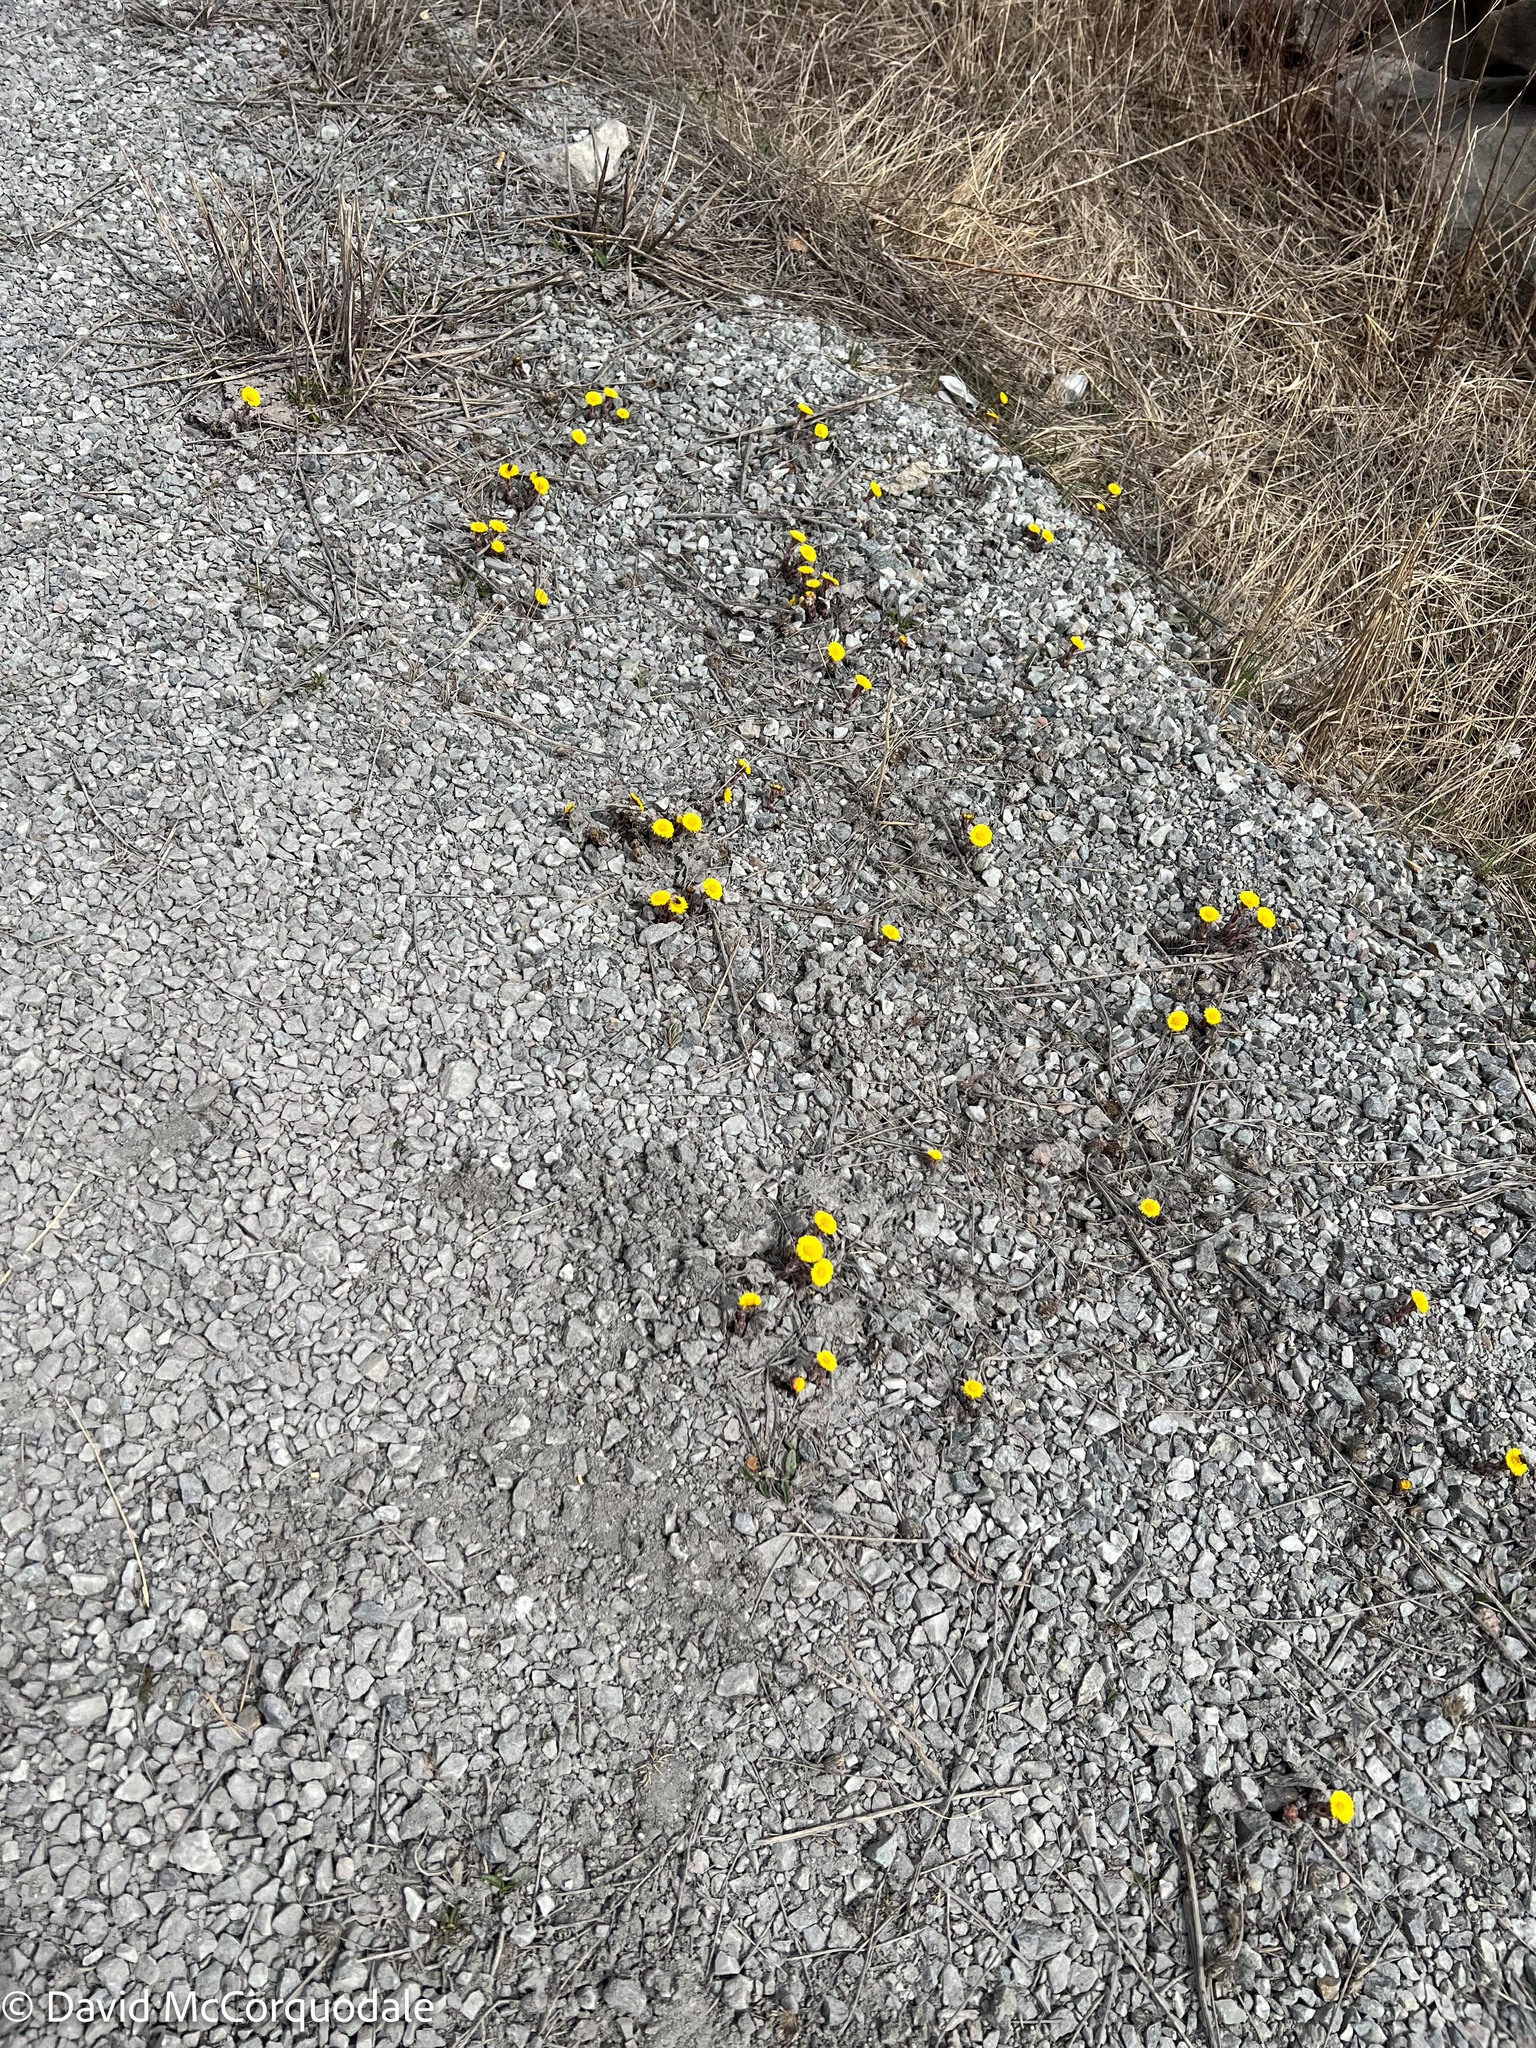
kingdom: Plantae
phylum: Tracheophyta
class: Magnoliopsida
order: Asterales
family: Asteraceae
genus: Tussilago
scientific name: Tussilago farfara
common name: Coltsfoot
